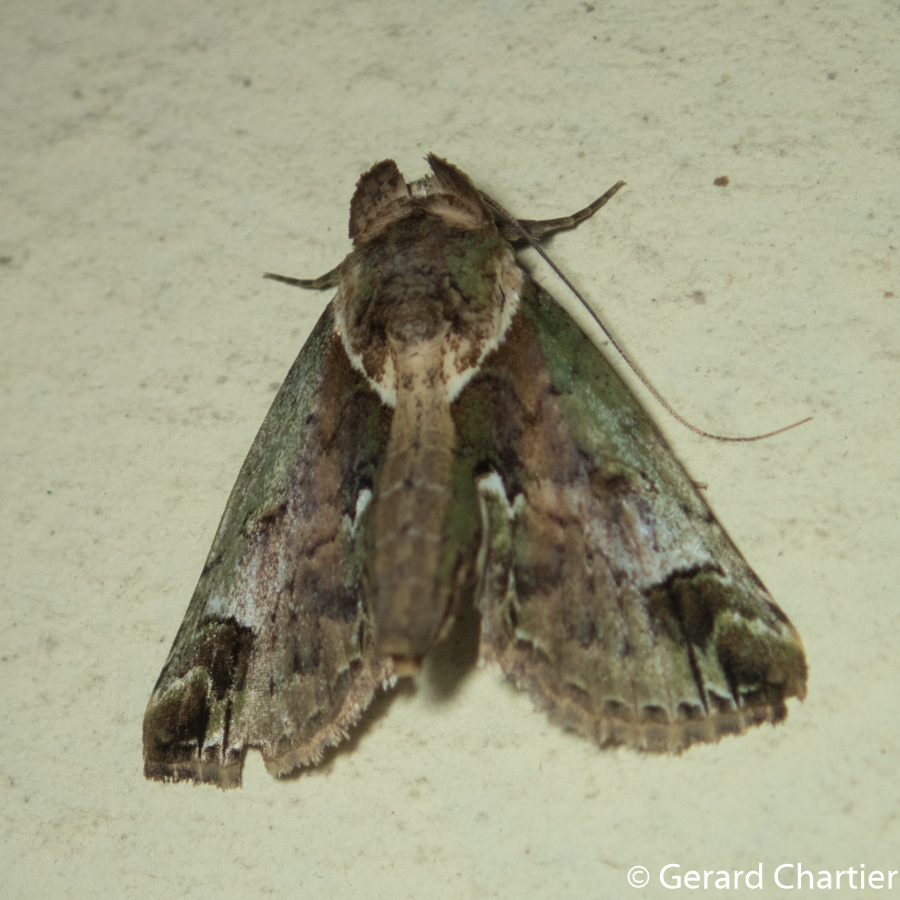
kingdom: Animalia
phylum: Arthropoda
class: Insecta
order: Lepidoptera
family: Nolidae
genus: Risoba
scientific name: Risoba basalis
